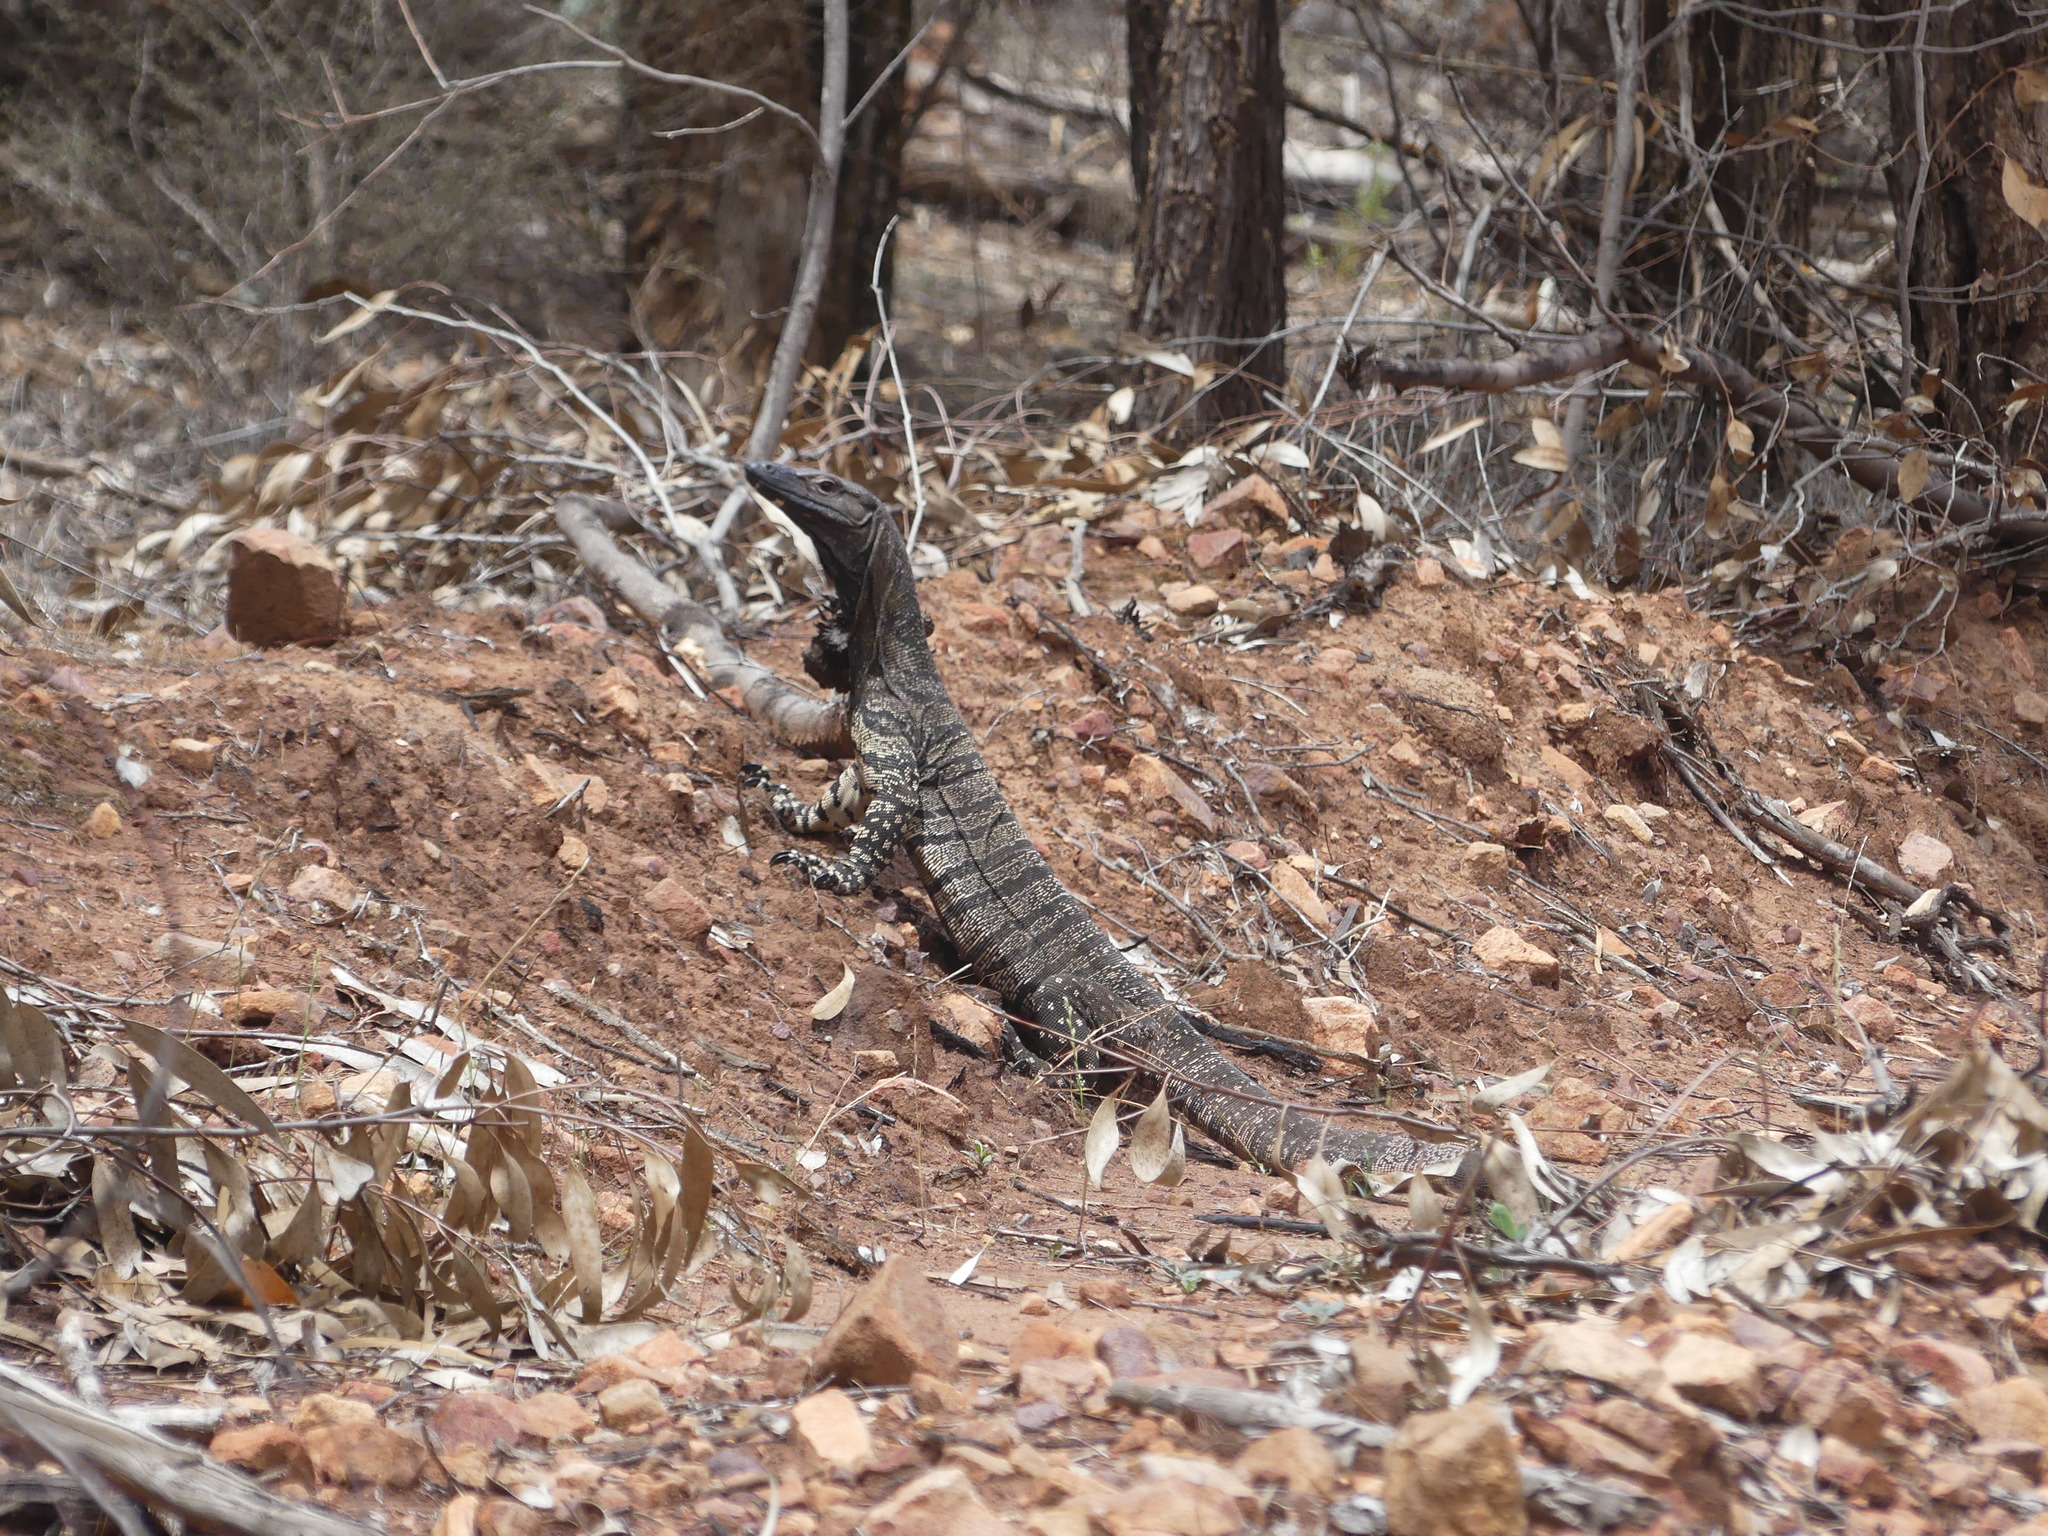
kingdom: Animalia
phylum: Chordata
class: Squamata
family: Varanidae
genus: Varanus
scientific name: Varanus varius
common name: Lace monitor
